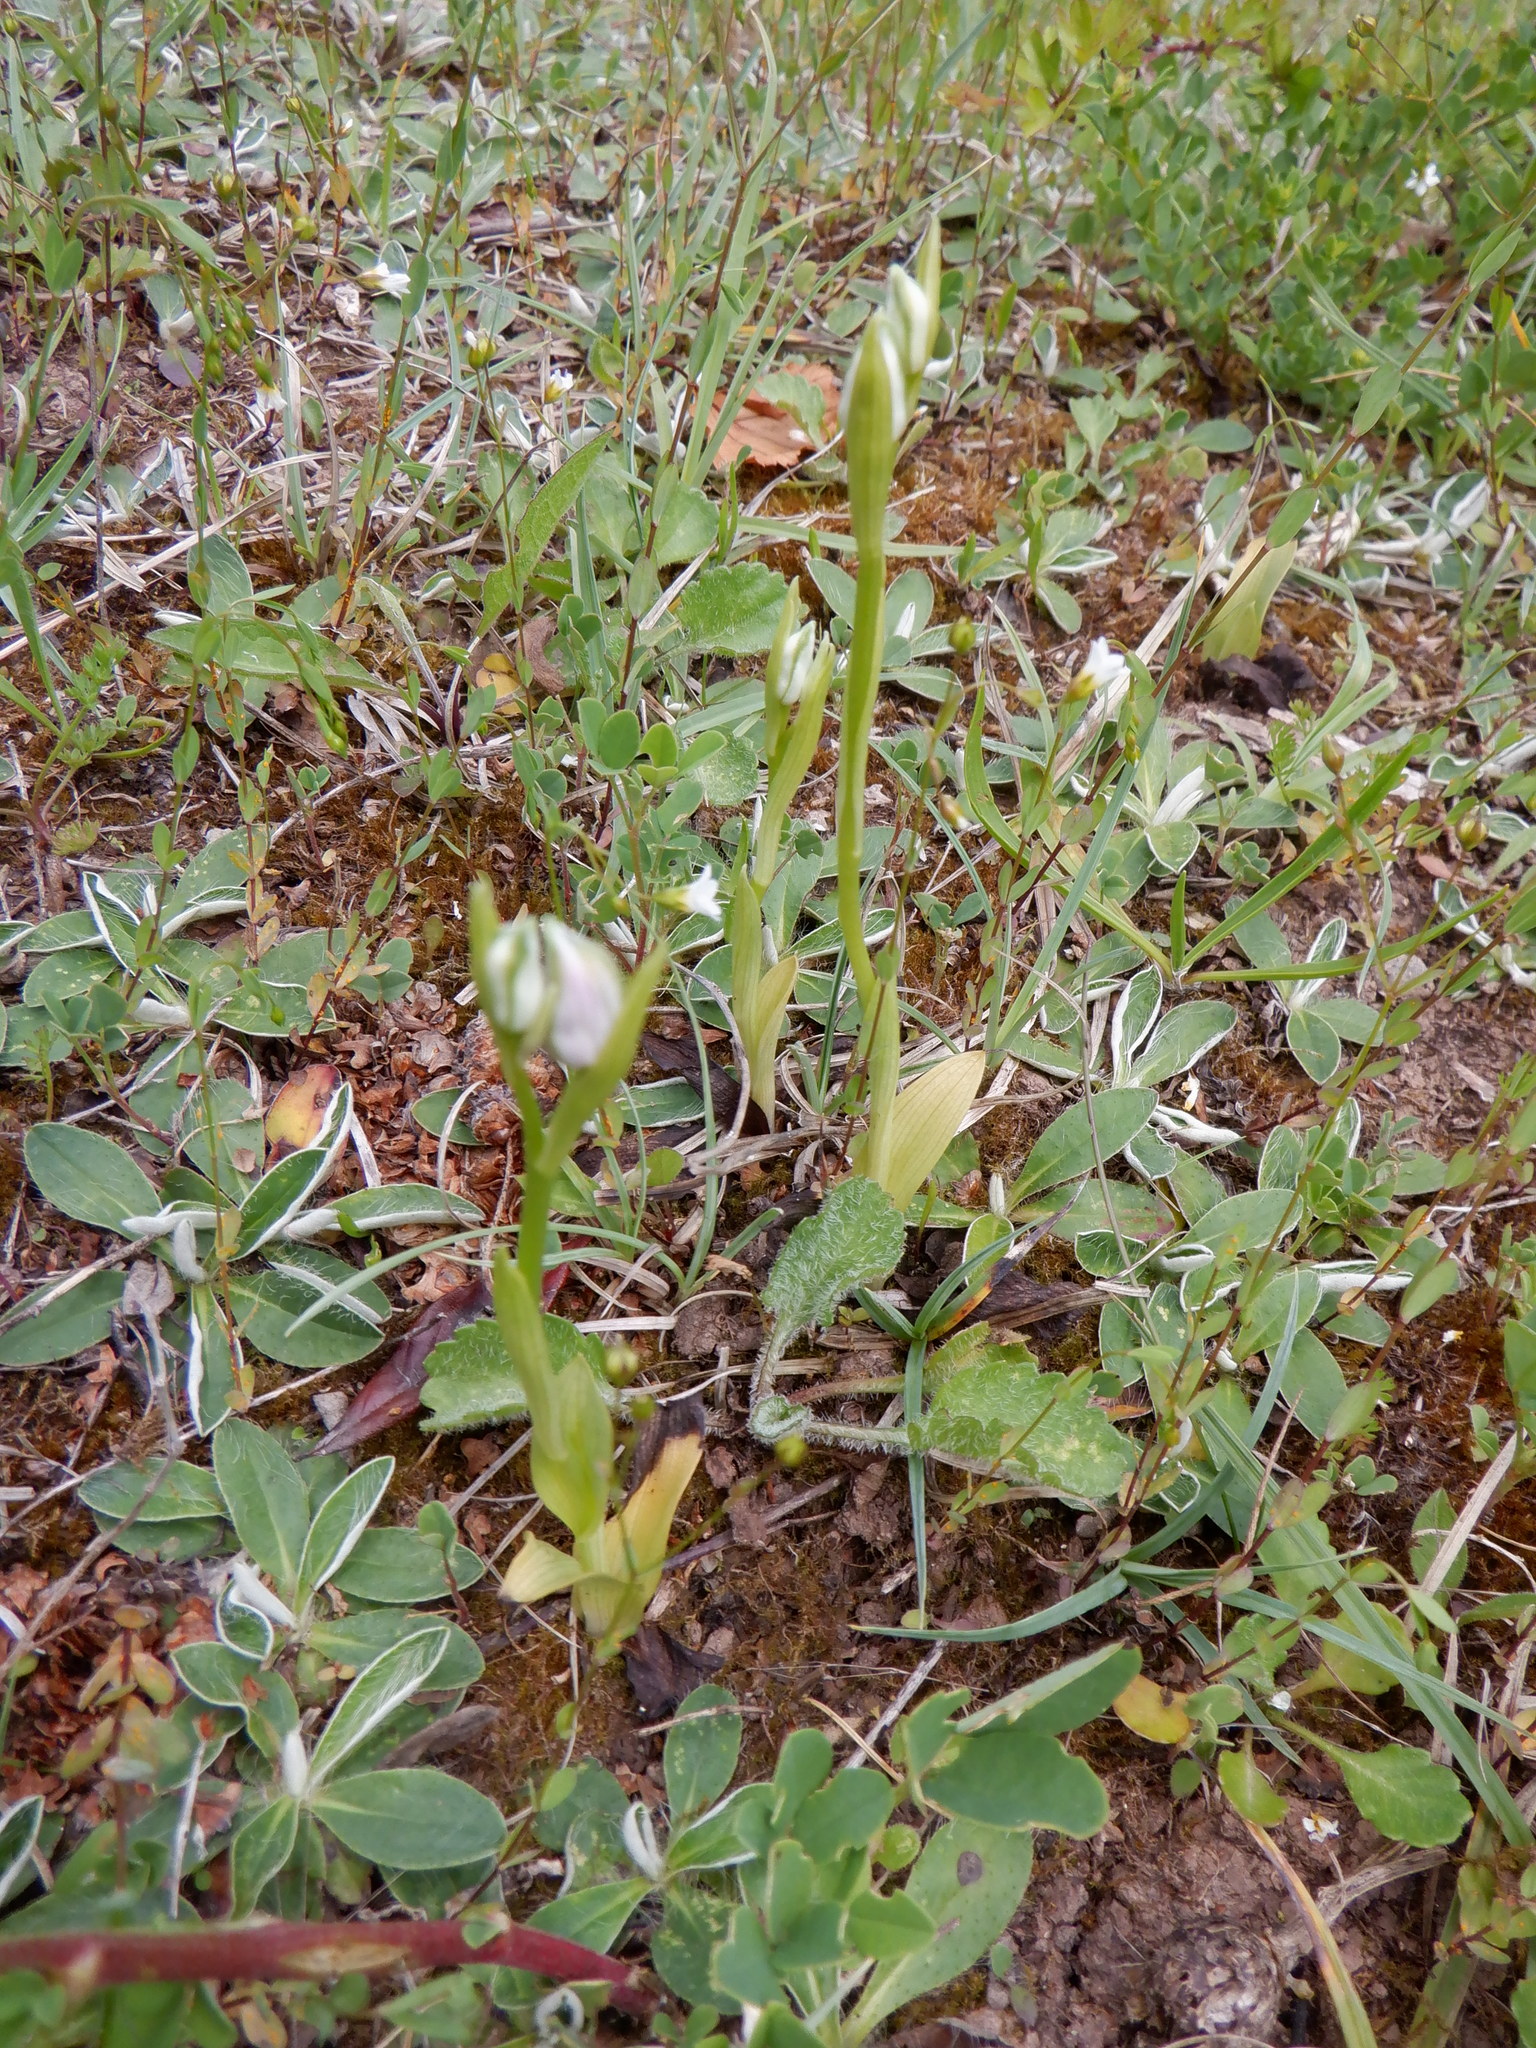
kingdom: Plantae
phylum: Tracheophyta
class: Liliopsida
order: Asparagales
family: Orchidaceae
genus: Ophrys
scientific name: Ophrys apifera
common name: Bee orchid
